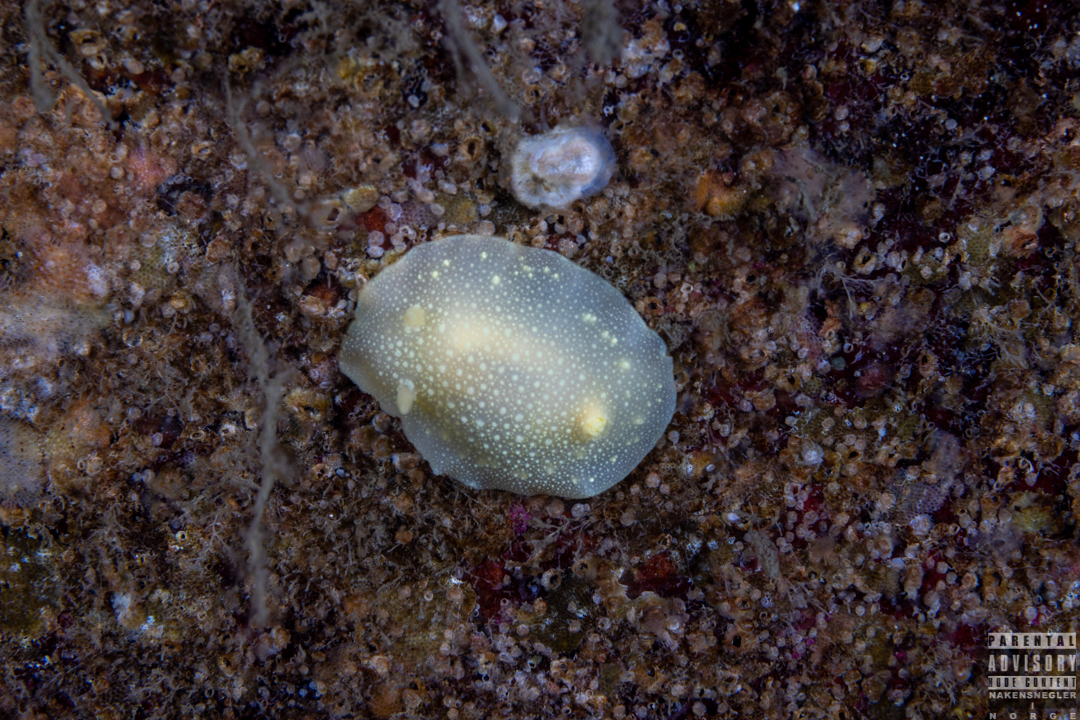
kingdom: Animalia
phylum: Mollusca
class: Gastropoda
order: Nudibranchia
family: Cadlinidae
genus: Cadlina
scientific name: Cadlina laevis
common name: White atlantic cadlina
